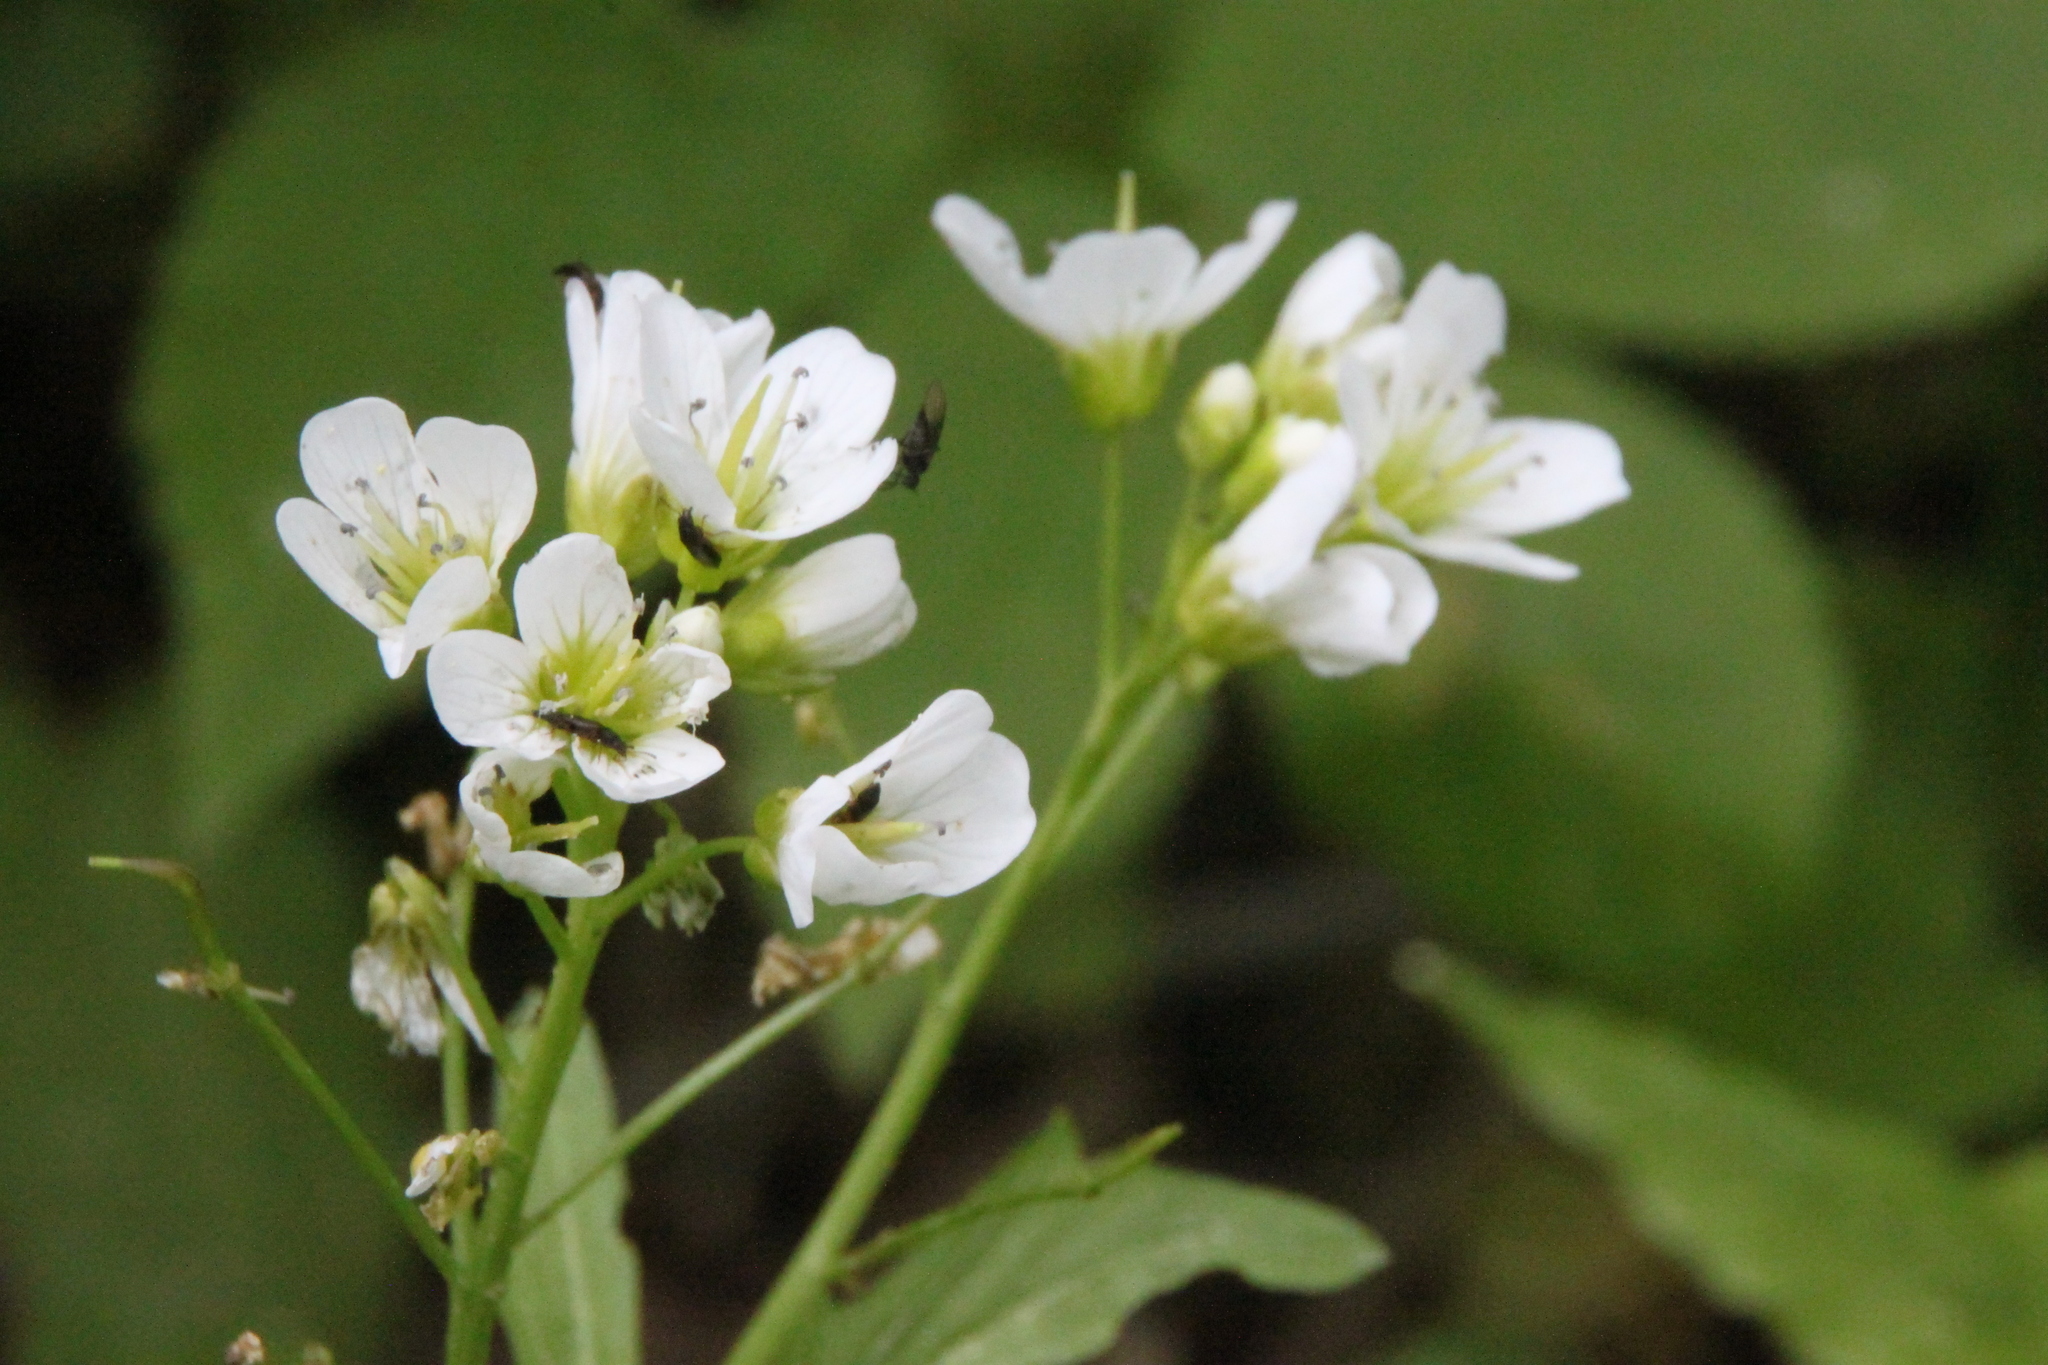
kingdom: Plantae
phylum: Tracheophyta
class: Magnoliopsida
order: Brassicales
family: Brassicaceae
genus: Cardamine
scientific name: Cardamine amara
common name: Large bitter-cress
